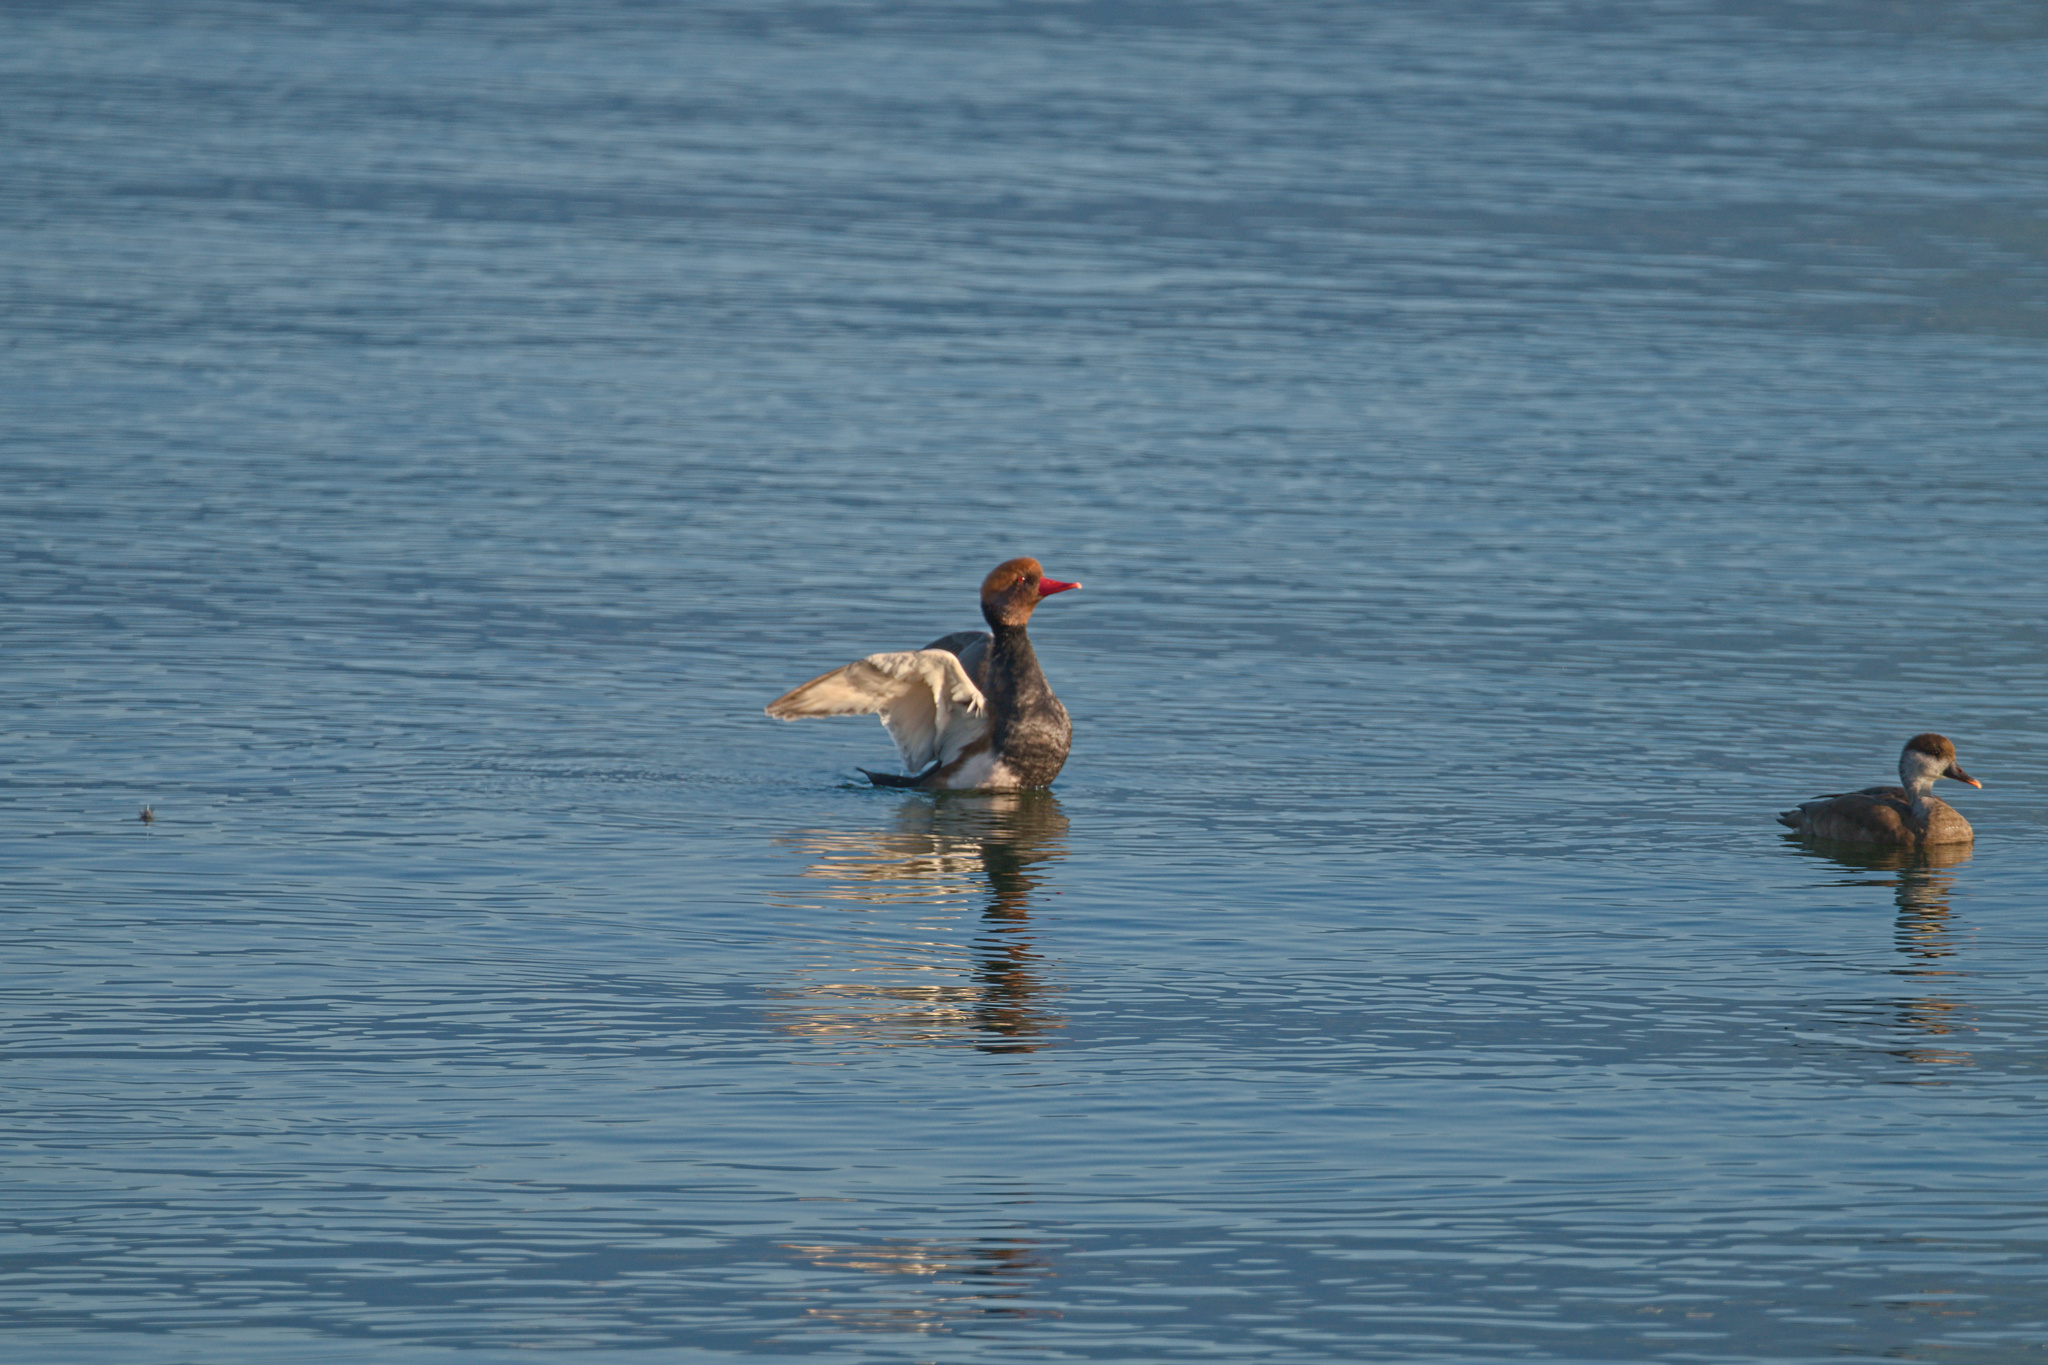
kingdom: Animalia
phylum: Chordata
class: Aves
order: Anseriformes
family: Anatidae
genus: Netta
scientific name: Netta rufina
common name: Red-crested pochard
